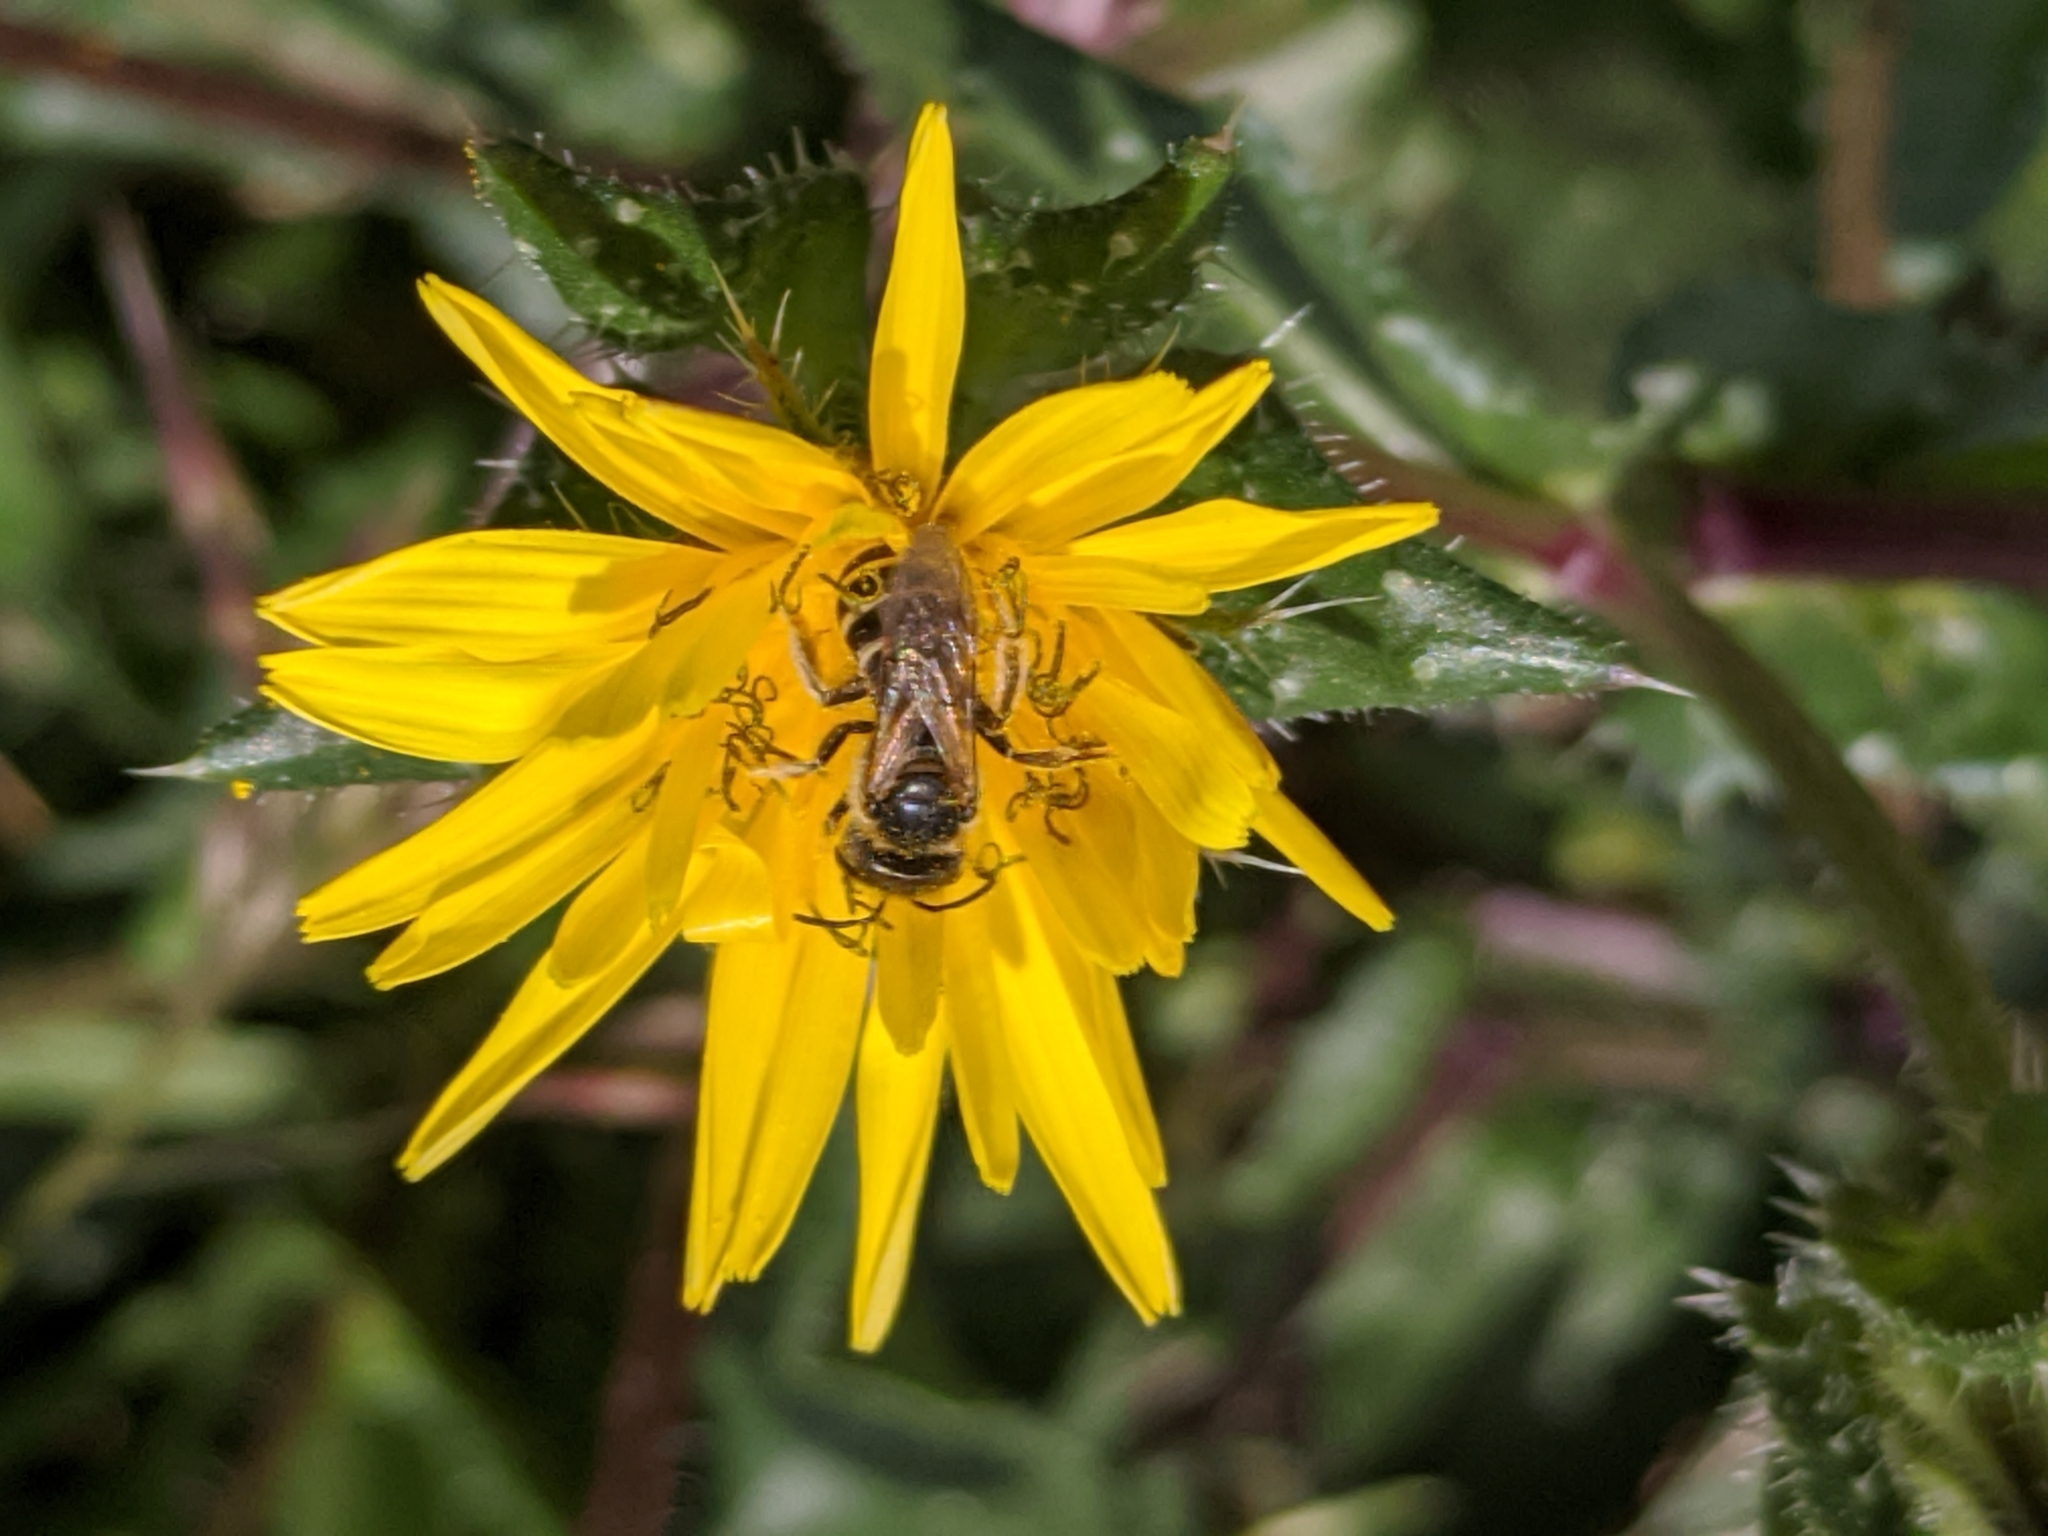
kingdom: Animalia
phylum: Arthropoda
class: Insecta
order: Hymenoptera
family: Halictidae
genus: Halictus
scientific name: Halictus ligatus
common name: Ligated furrow bee
